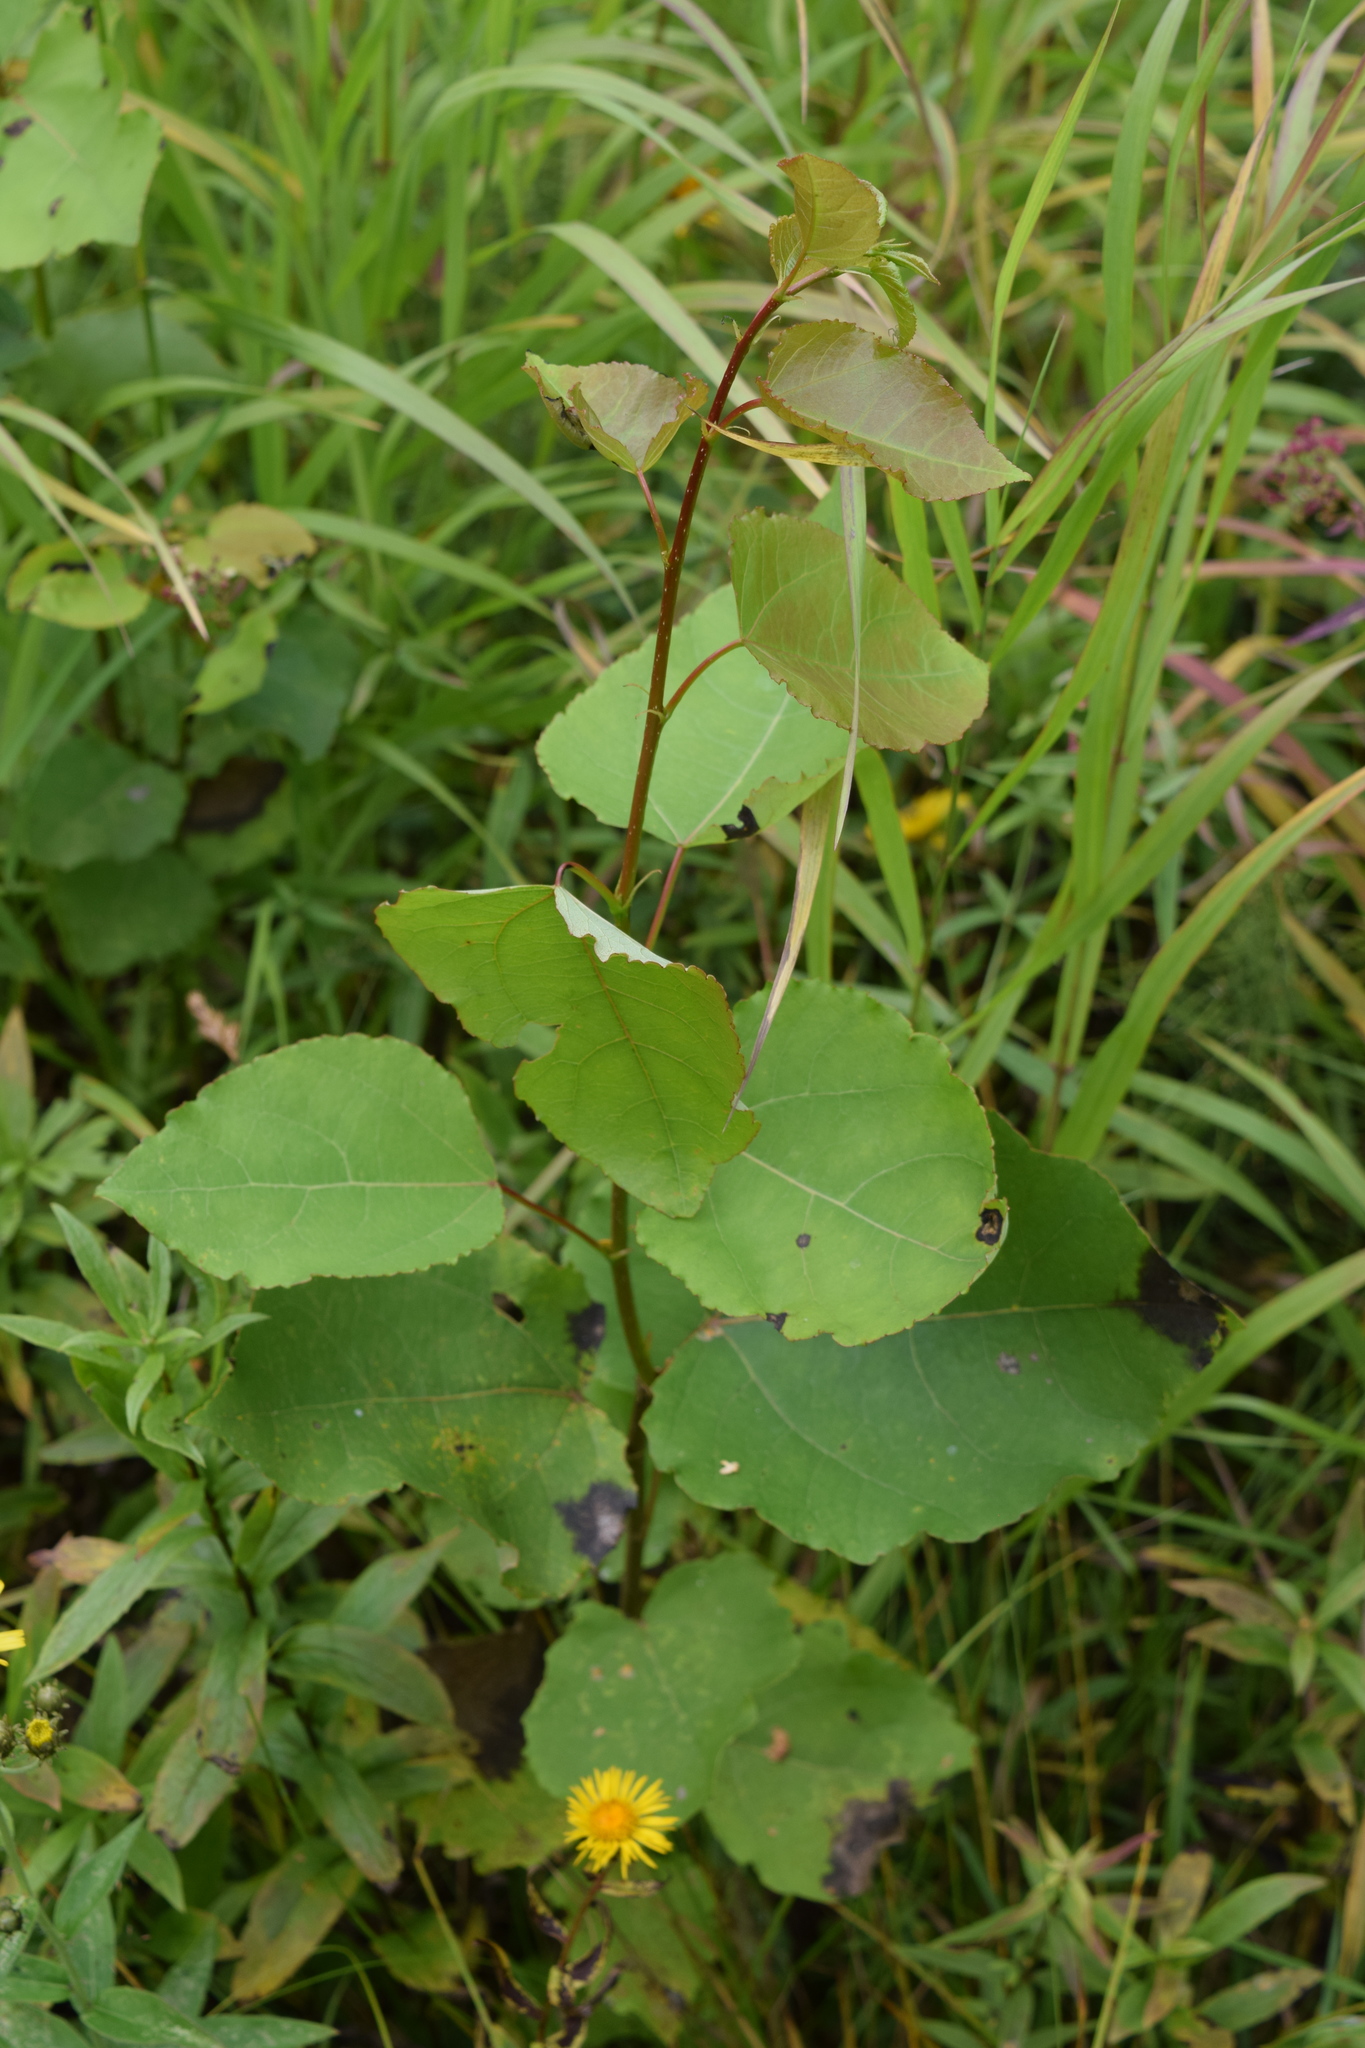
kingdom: Plantae
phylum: Tracheophyta
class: Magnoliopsida
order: Malpighiales
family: Salicaceae
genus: Populus
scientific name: Populus tremula
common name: European aspen
